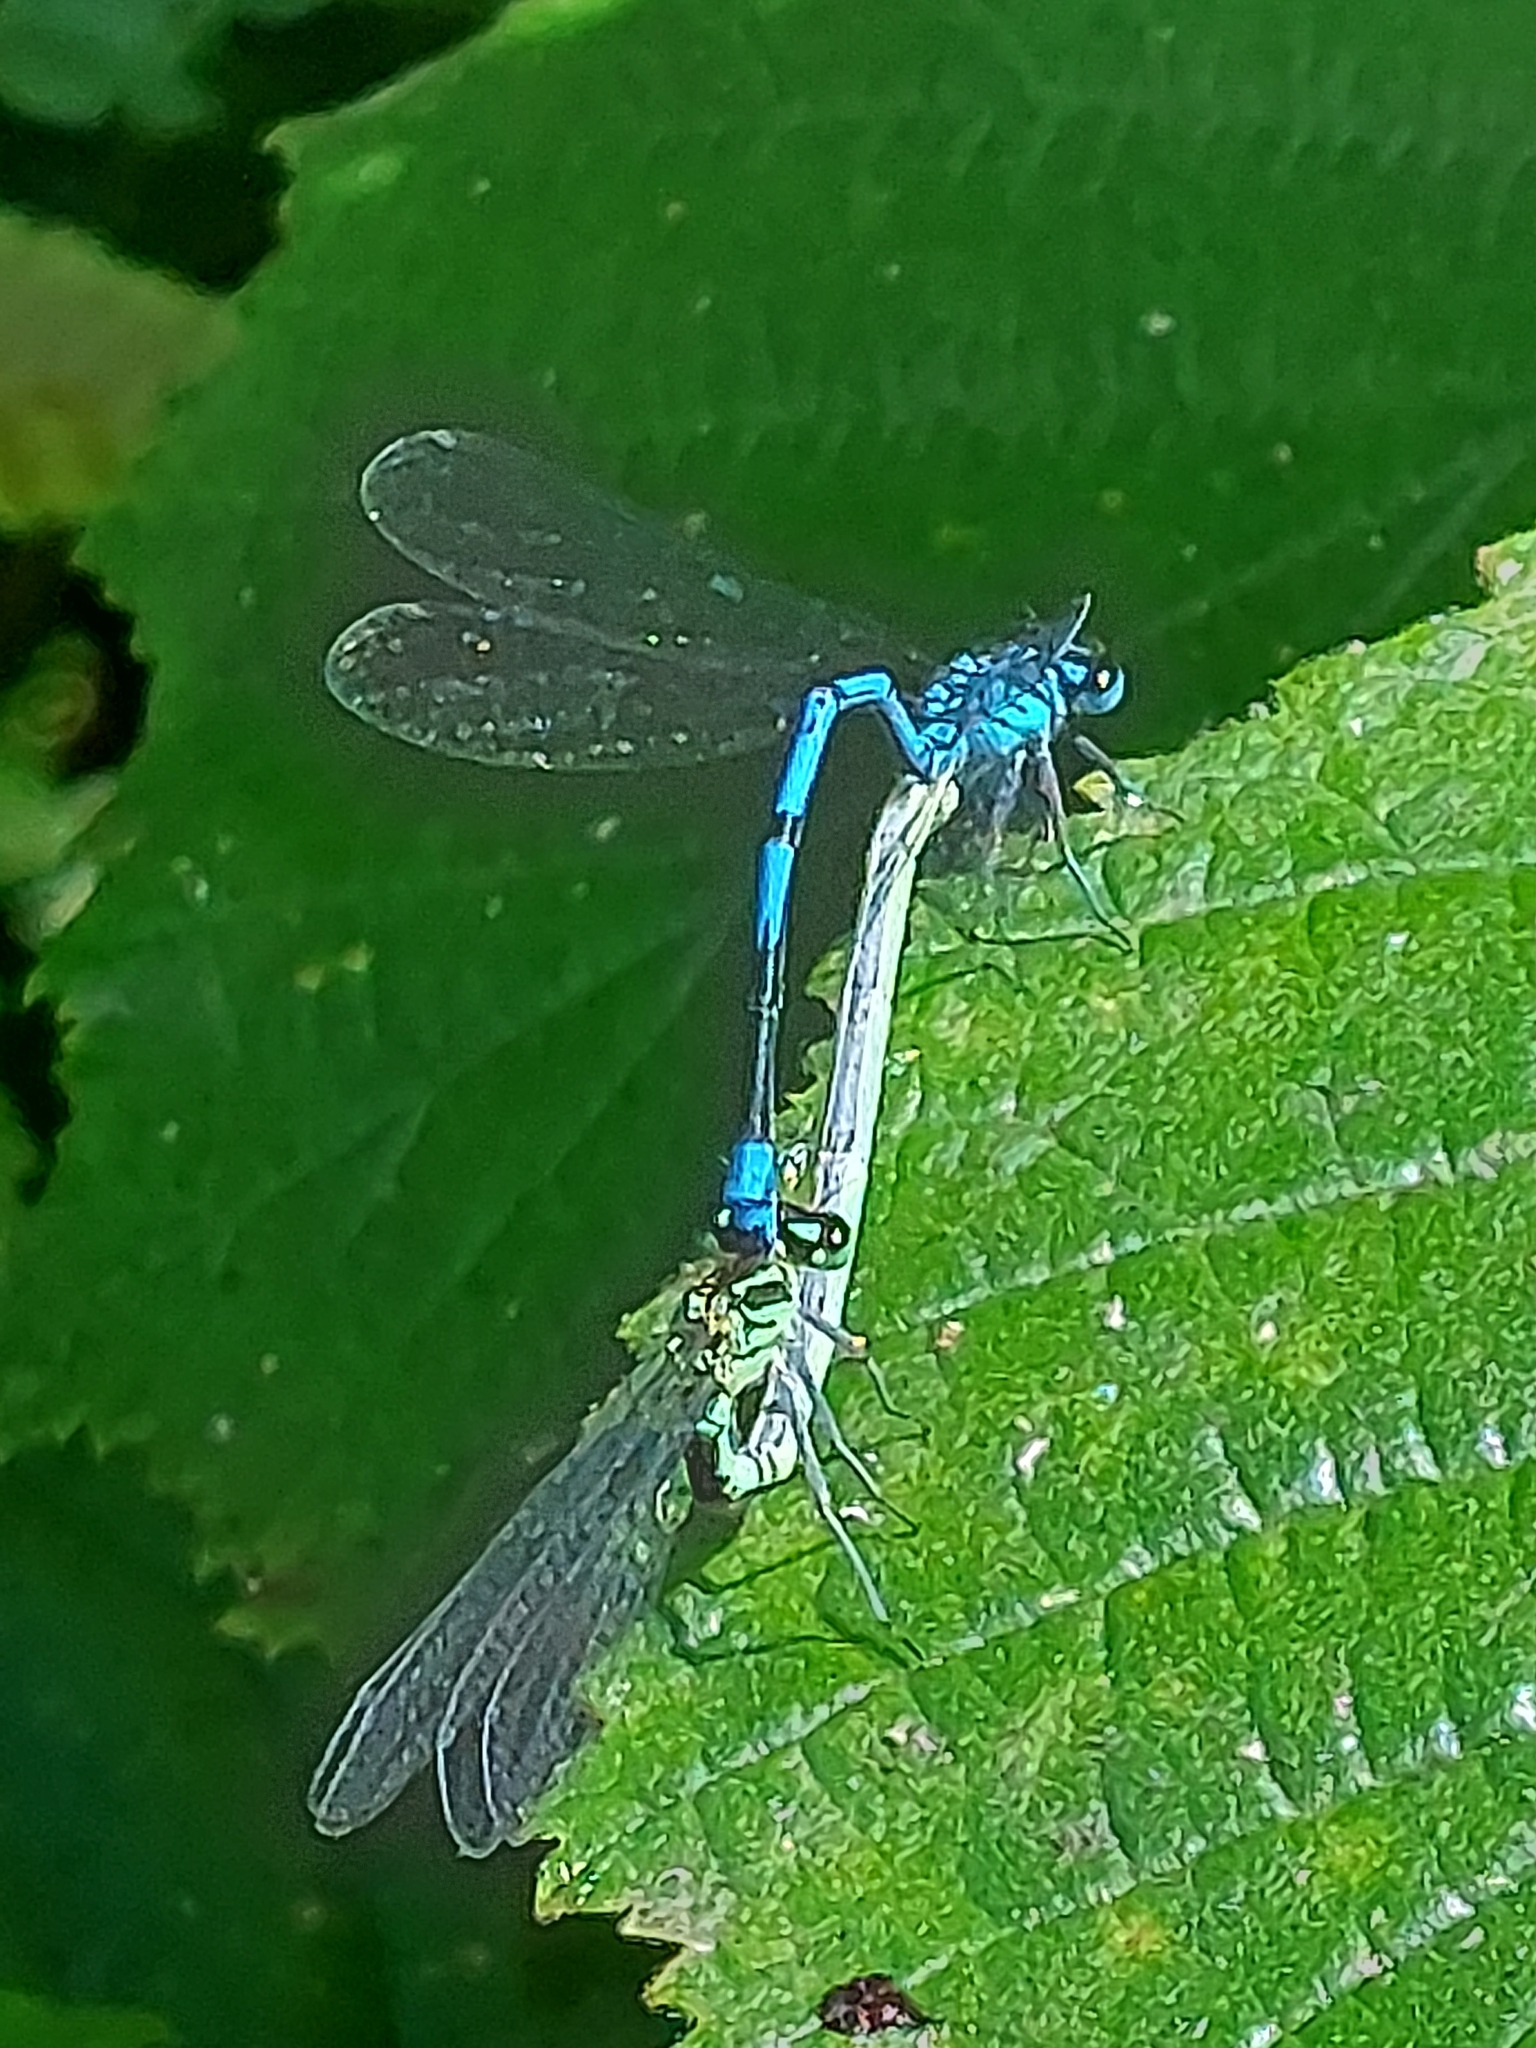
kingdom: Animalia
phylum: Arthropoda
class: Insecta
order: Odonata
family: Coenagrionidae
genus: Coenagrion
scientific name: Coenagrion puella
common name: Azure damselfly
